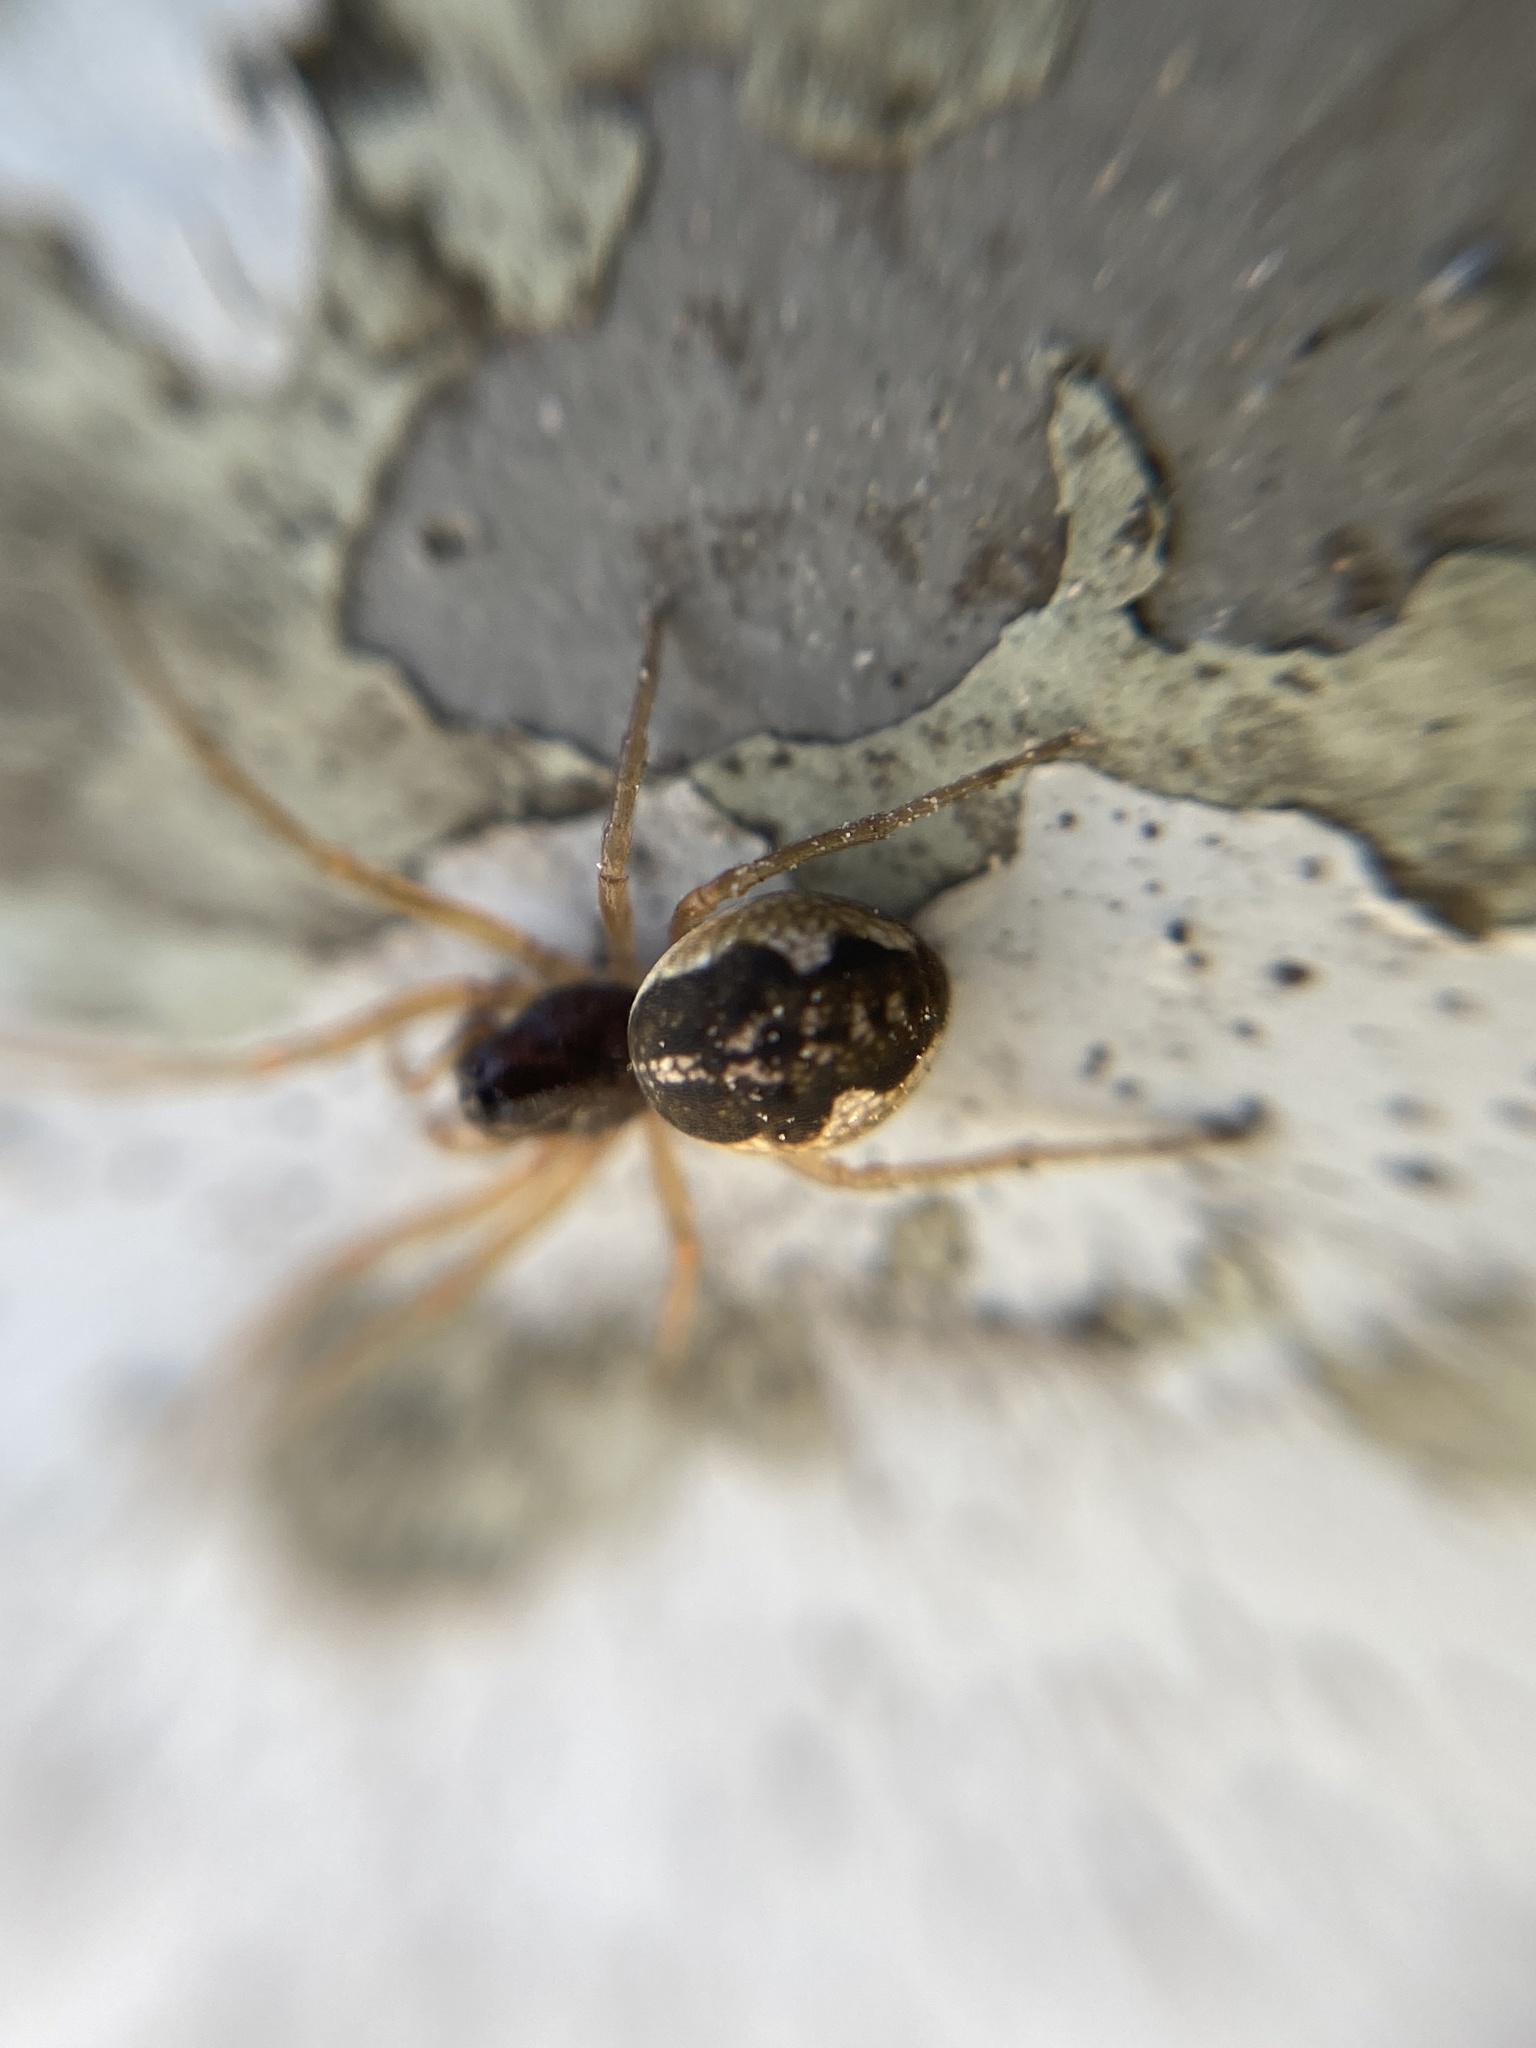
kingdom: Animalia
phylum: Arthropoda
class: Arachnida
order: Araneae
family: Tetragnathidae
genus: Pachygnatha
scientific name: Pachygnatha degeeri
